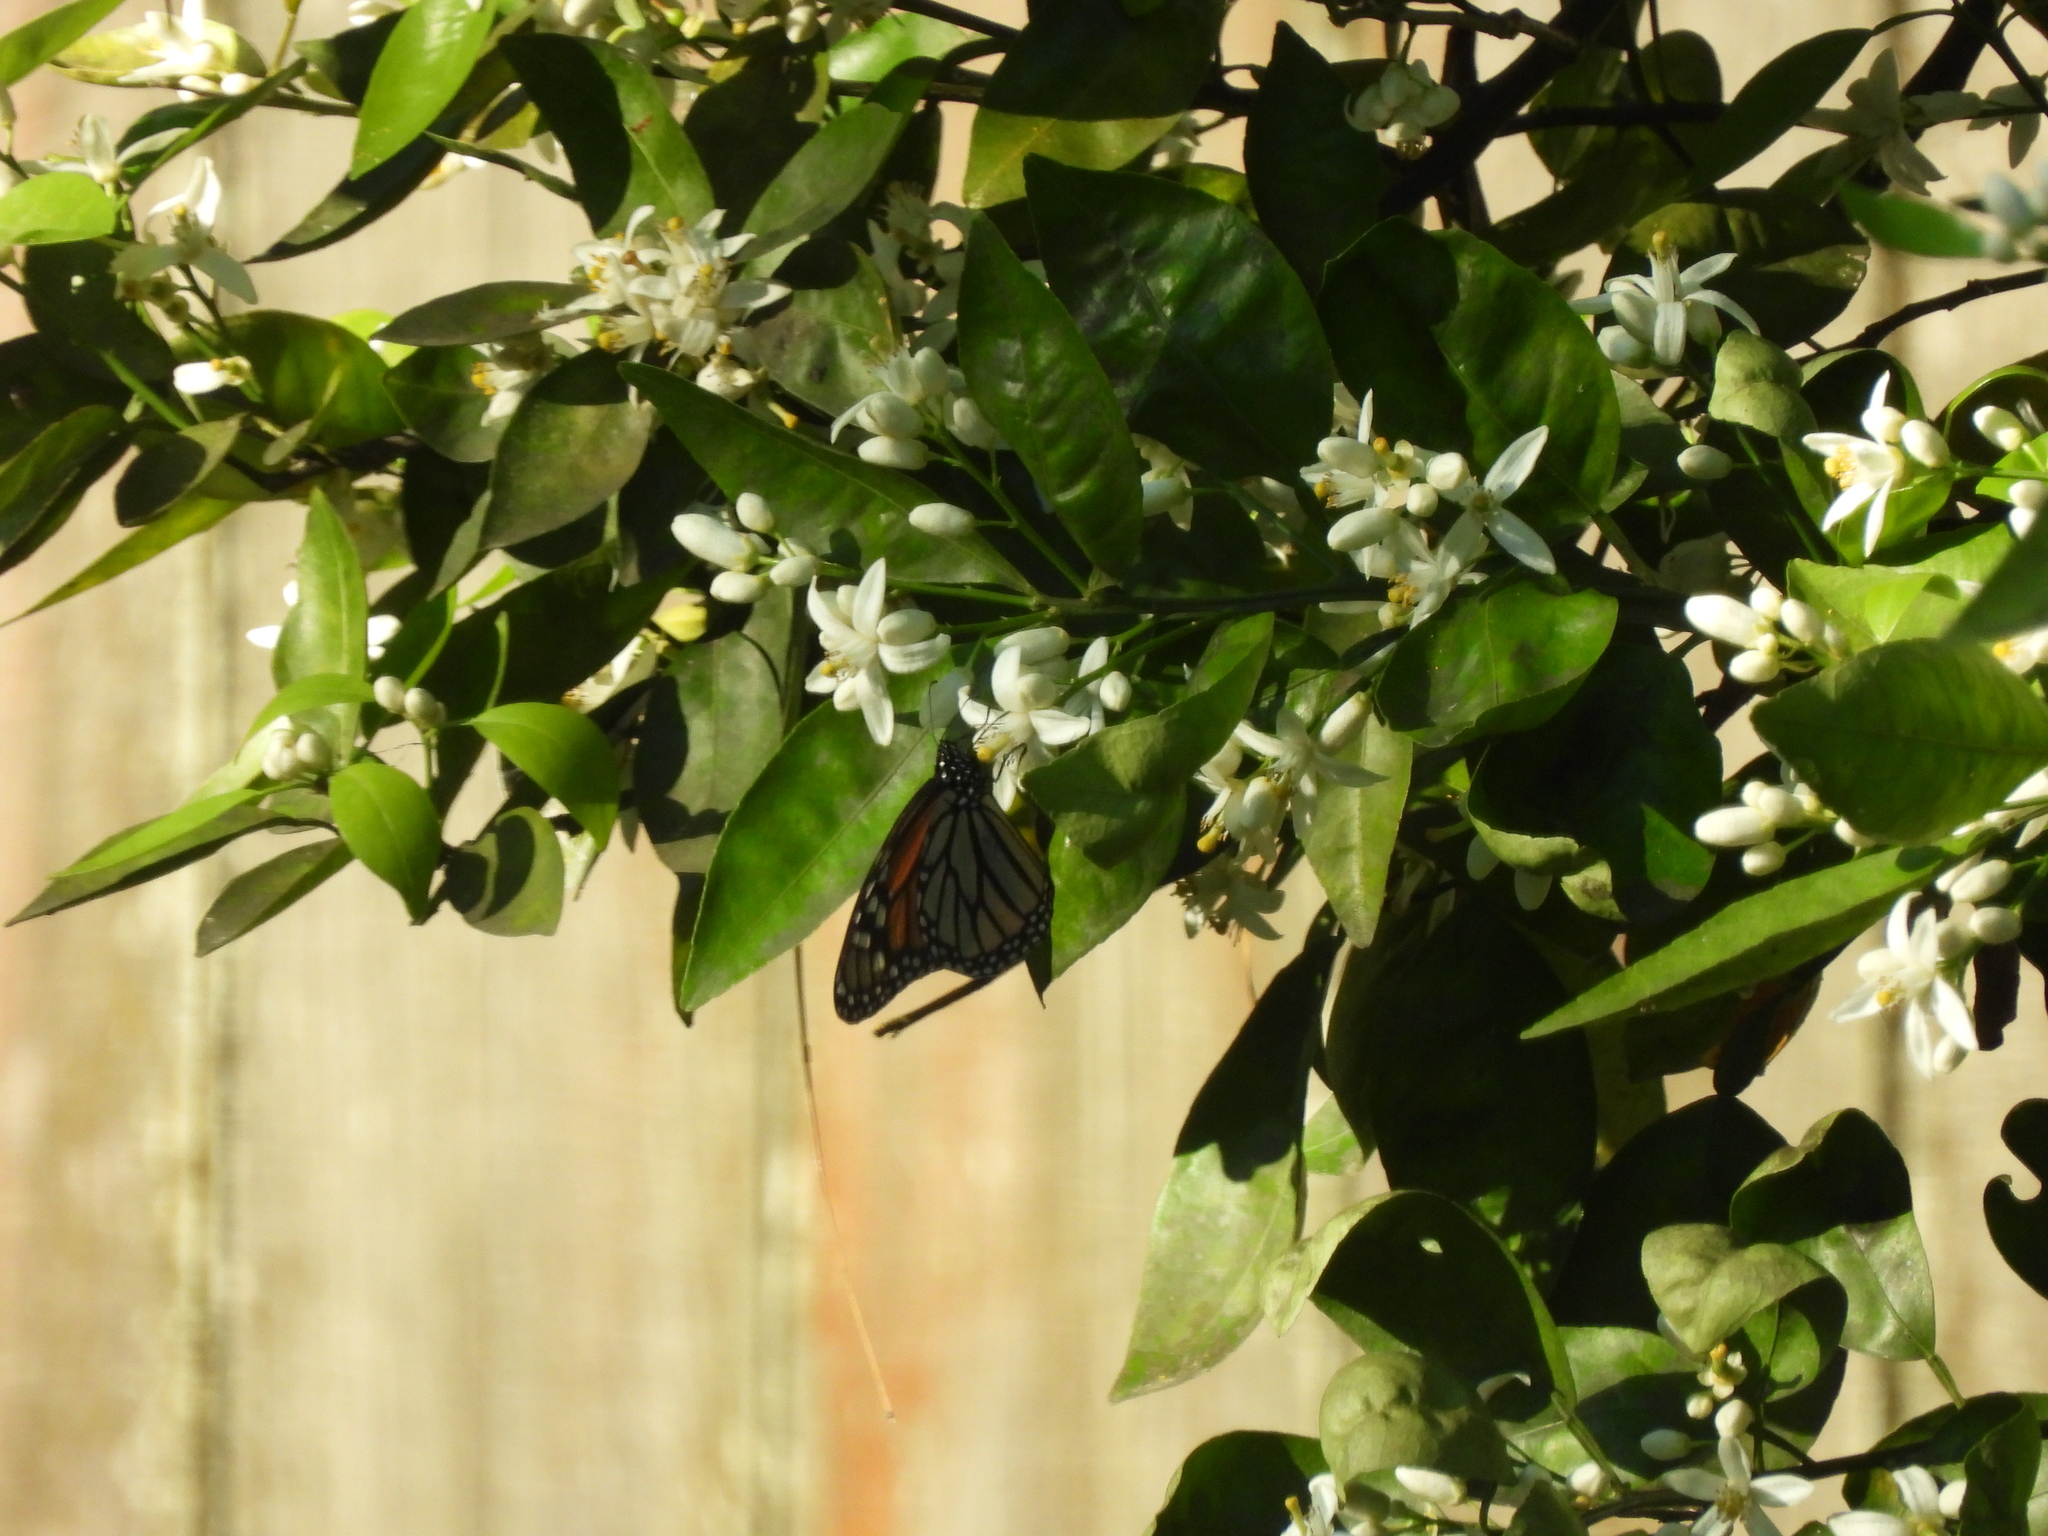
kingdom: Animalia
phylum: Arthropoda
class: Insecta
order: Lepidoptera
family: Nymphalidae
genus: Danaus
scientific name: Danaus plexippus
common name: Monarch
